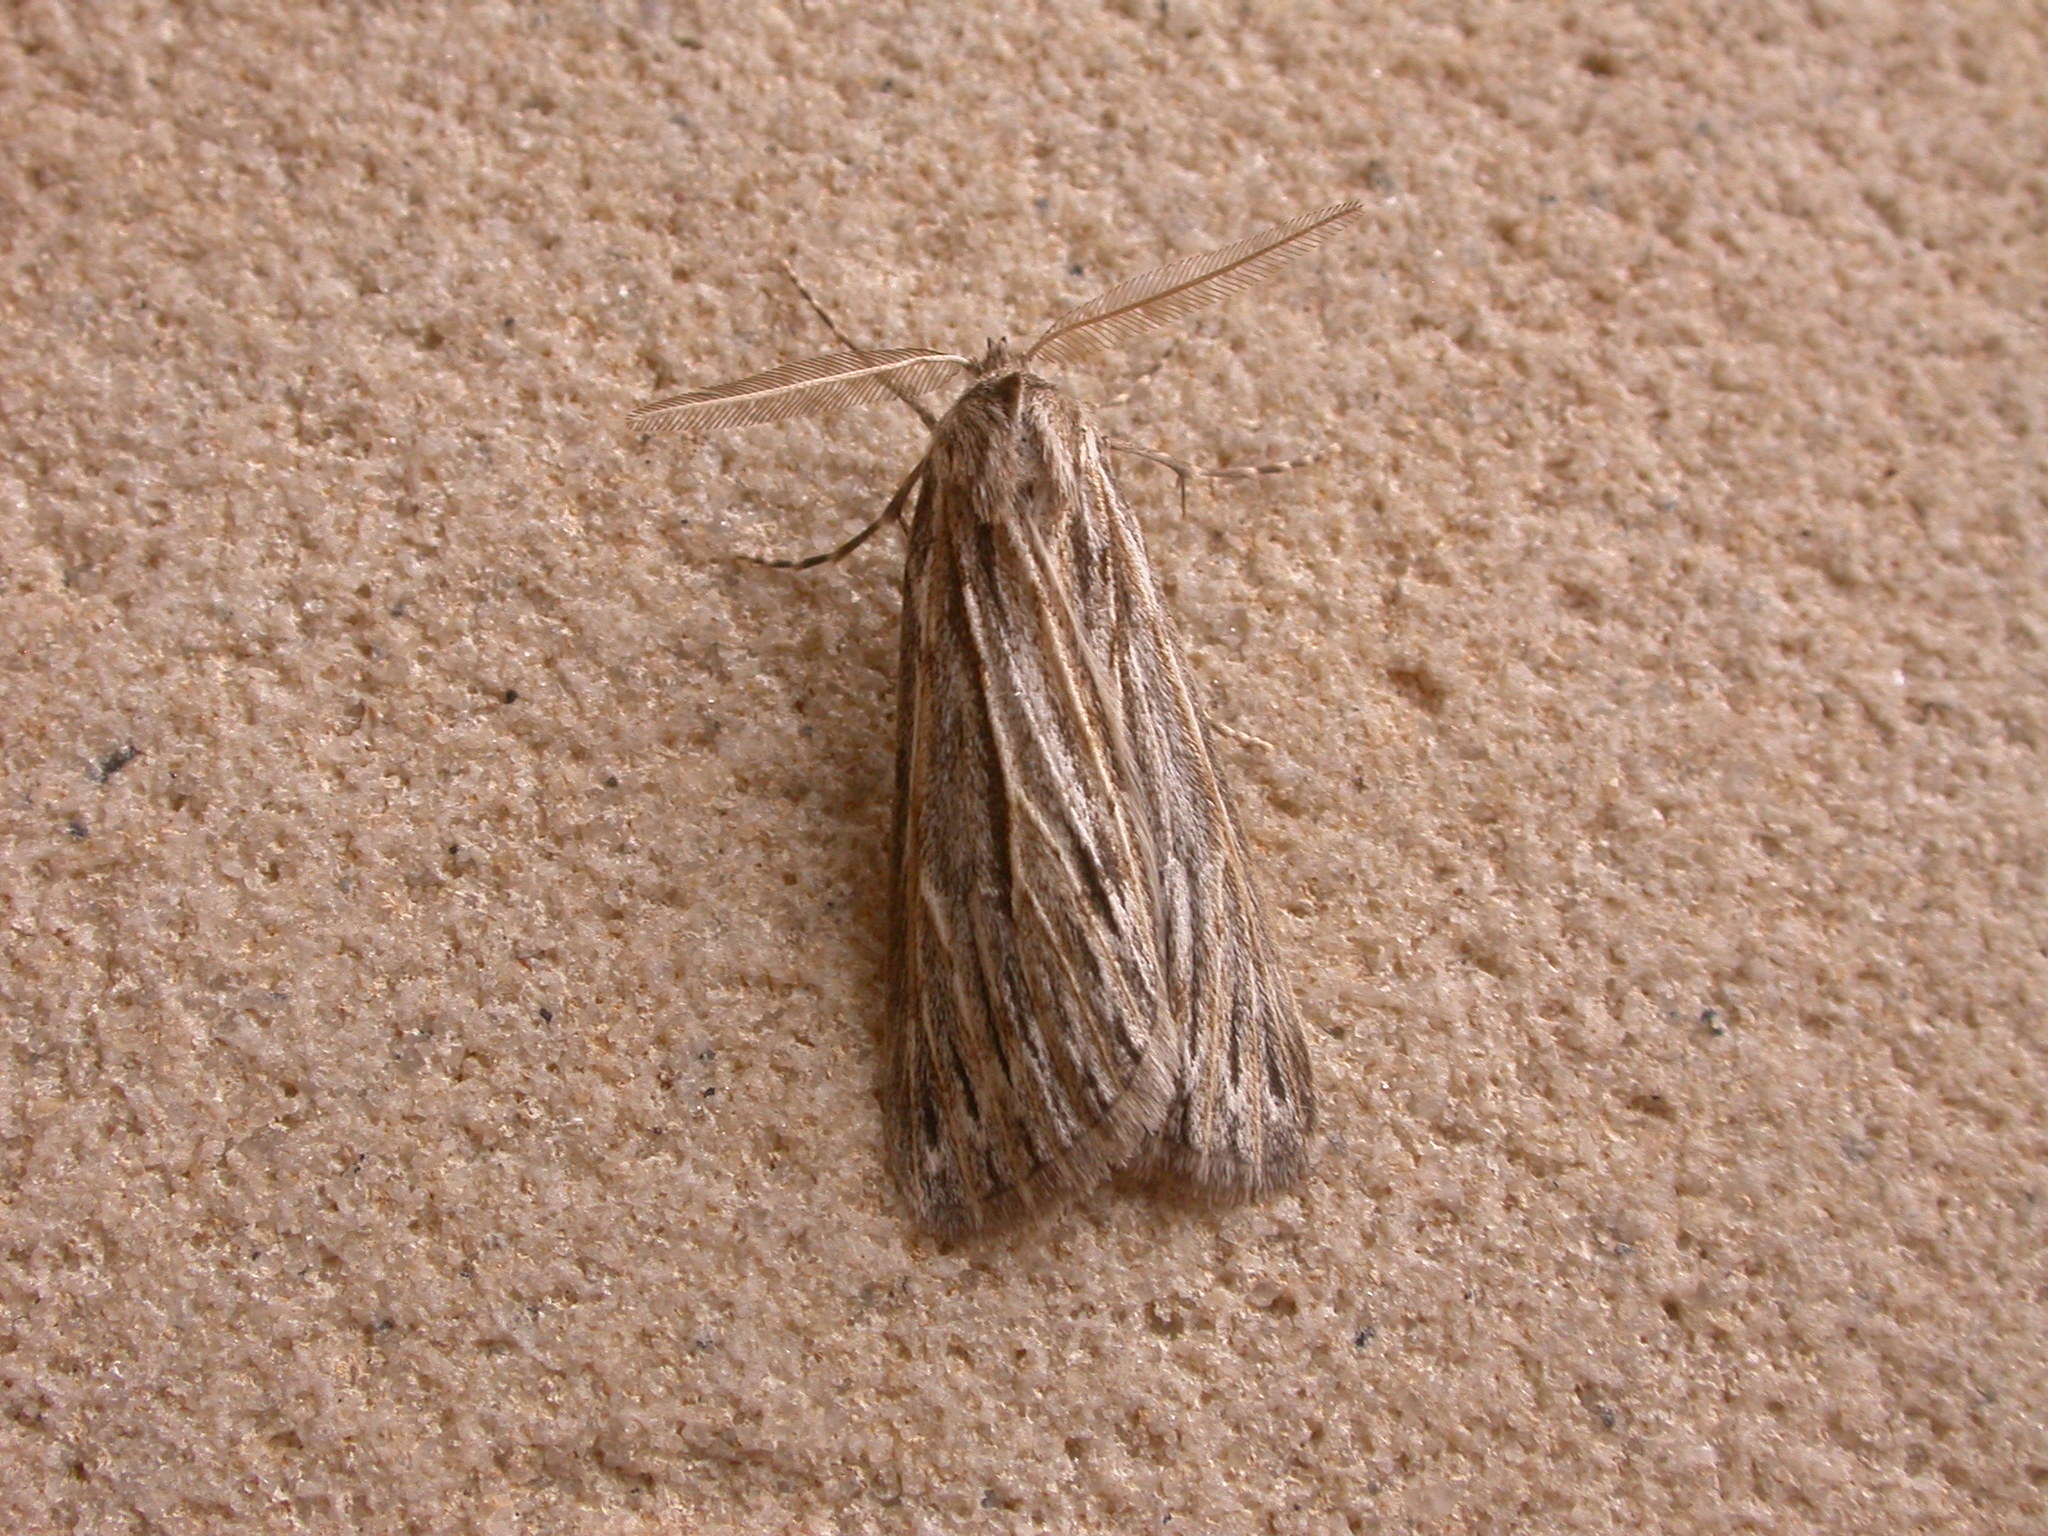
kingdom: Animalia
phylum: Arthropoda
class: Insecta
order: Lepidoptera
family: Geometridae
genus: Ciampa
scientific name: Ciampa arietaria
